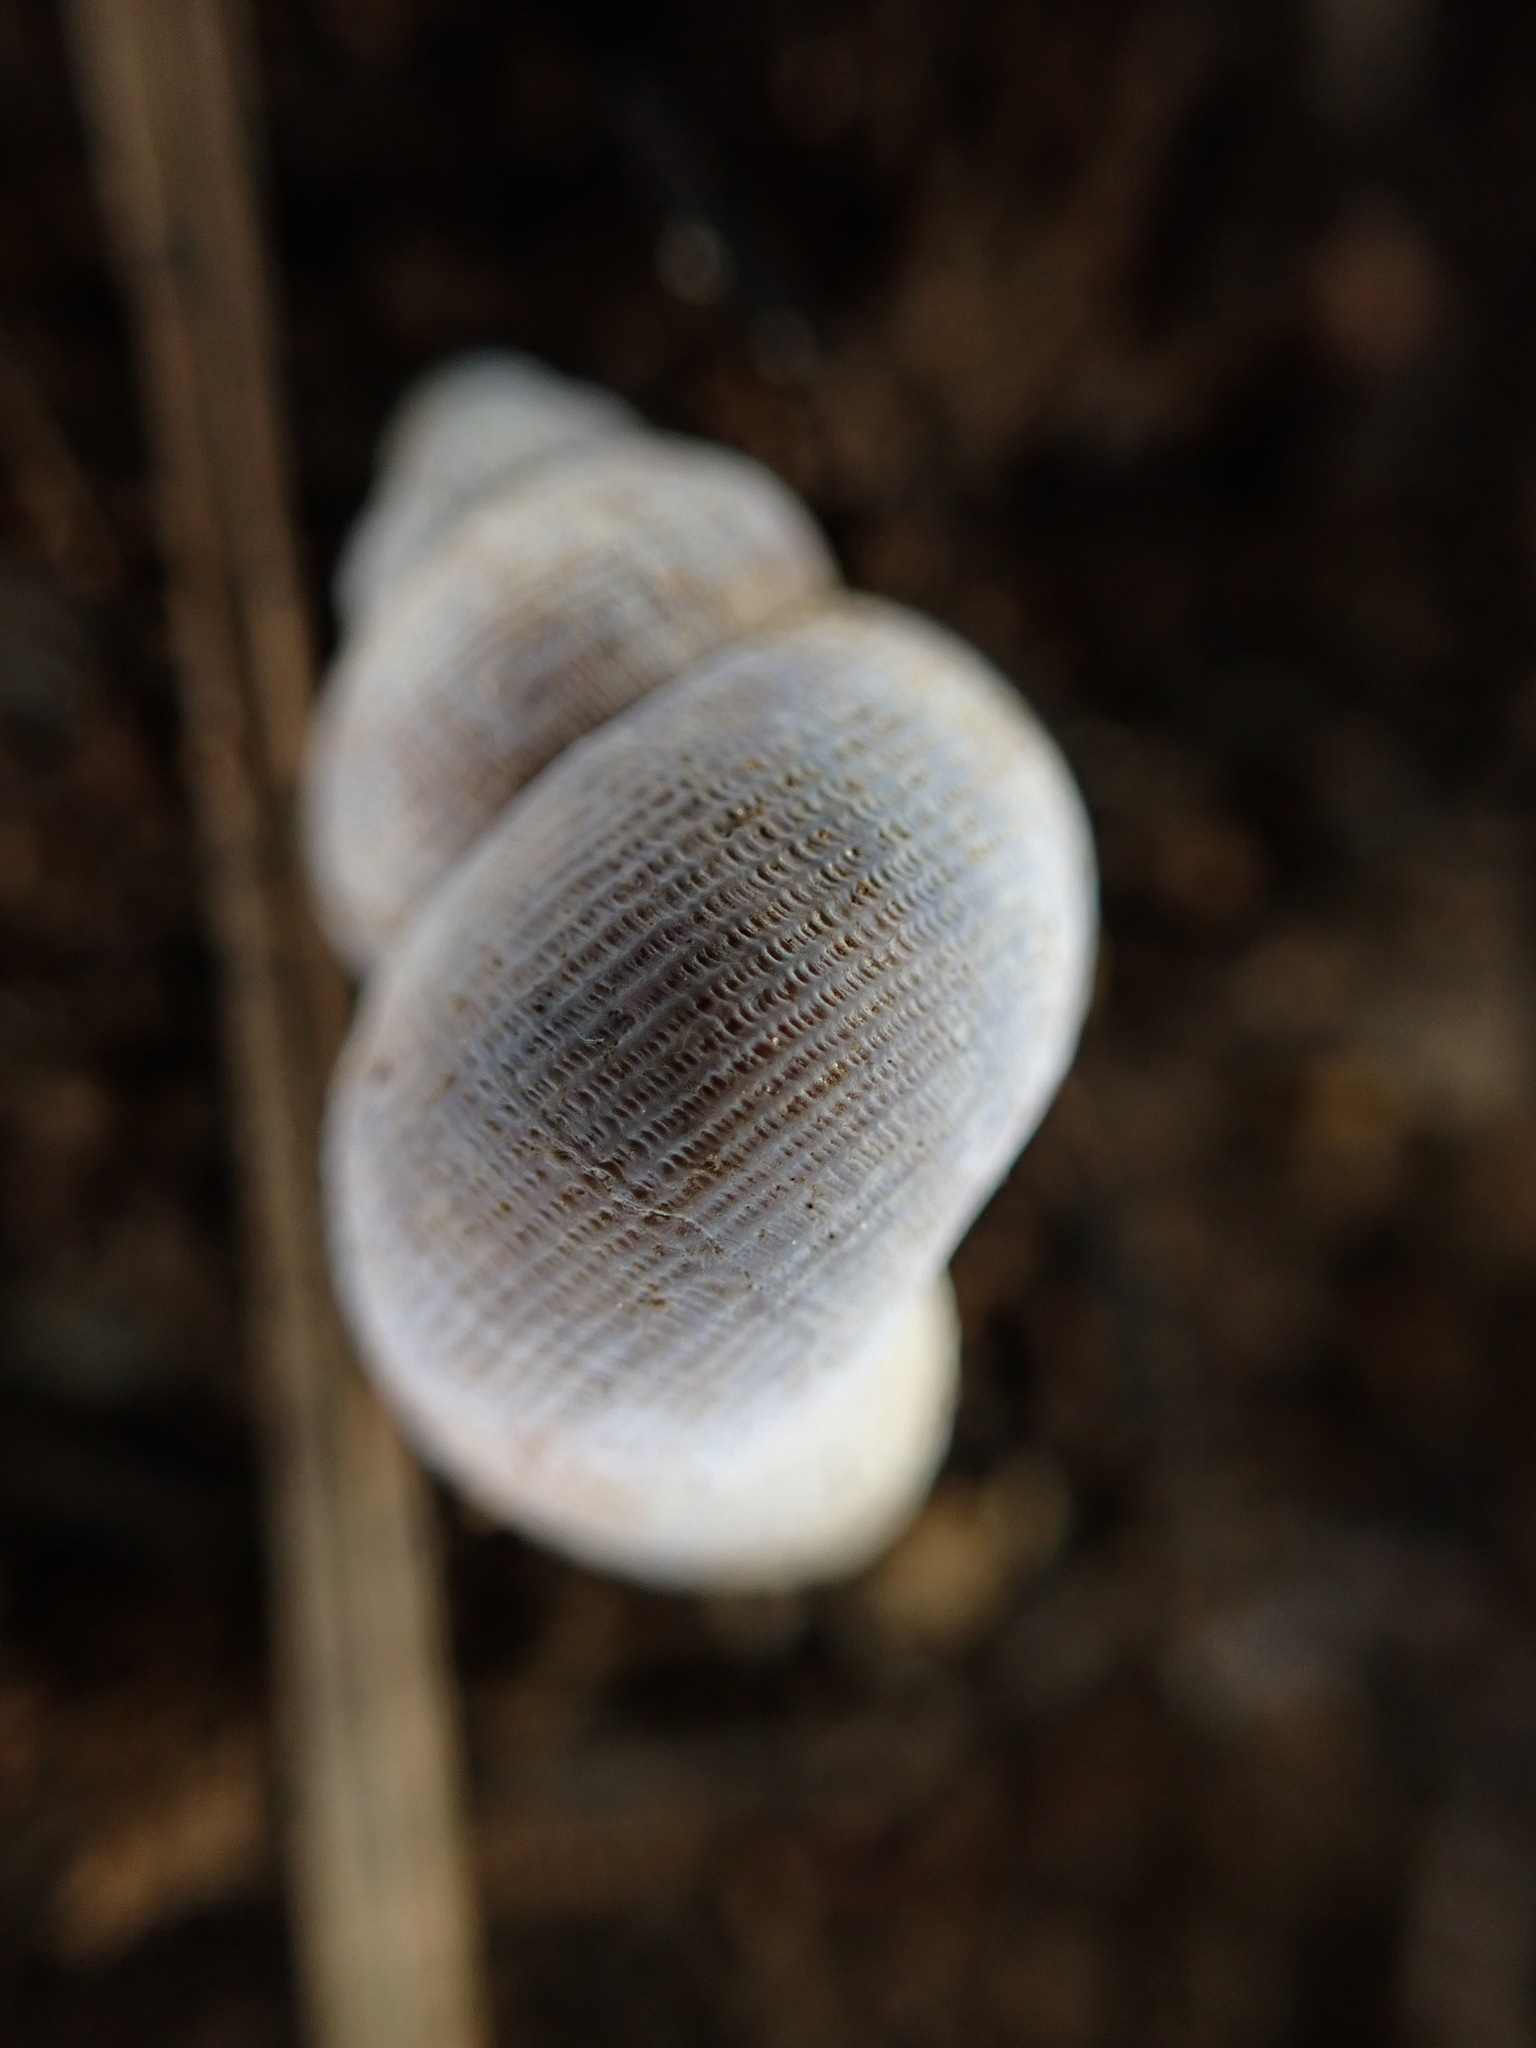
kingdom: Animalia
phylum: Mollusca
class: Gastropoda
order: Littorinimorpha
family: Pomatiidae
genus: Pomatias
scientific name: Pomatias elegans
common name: Red-mouthed snail
